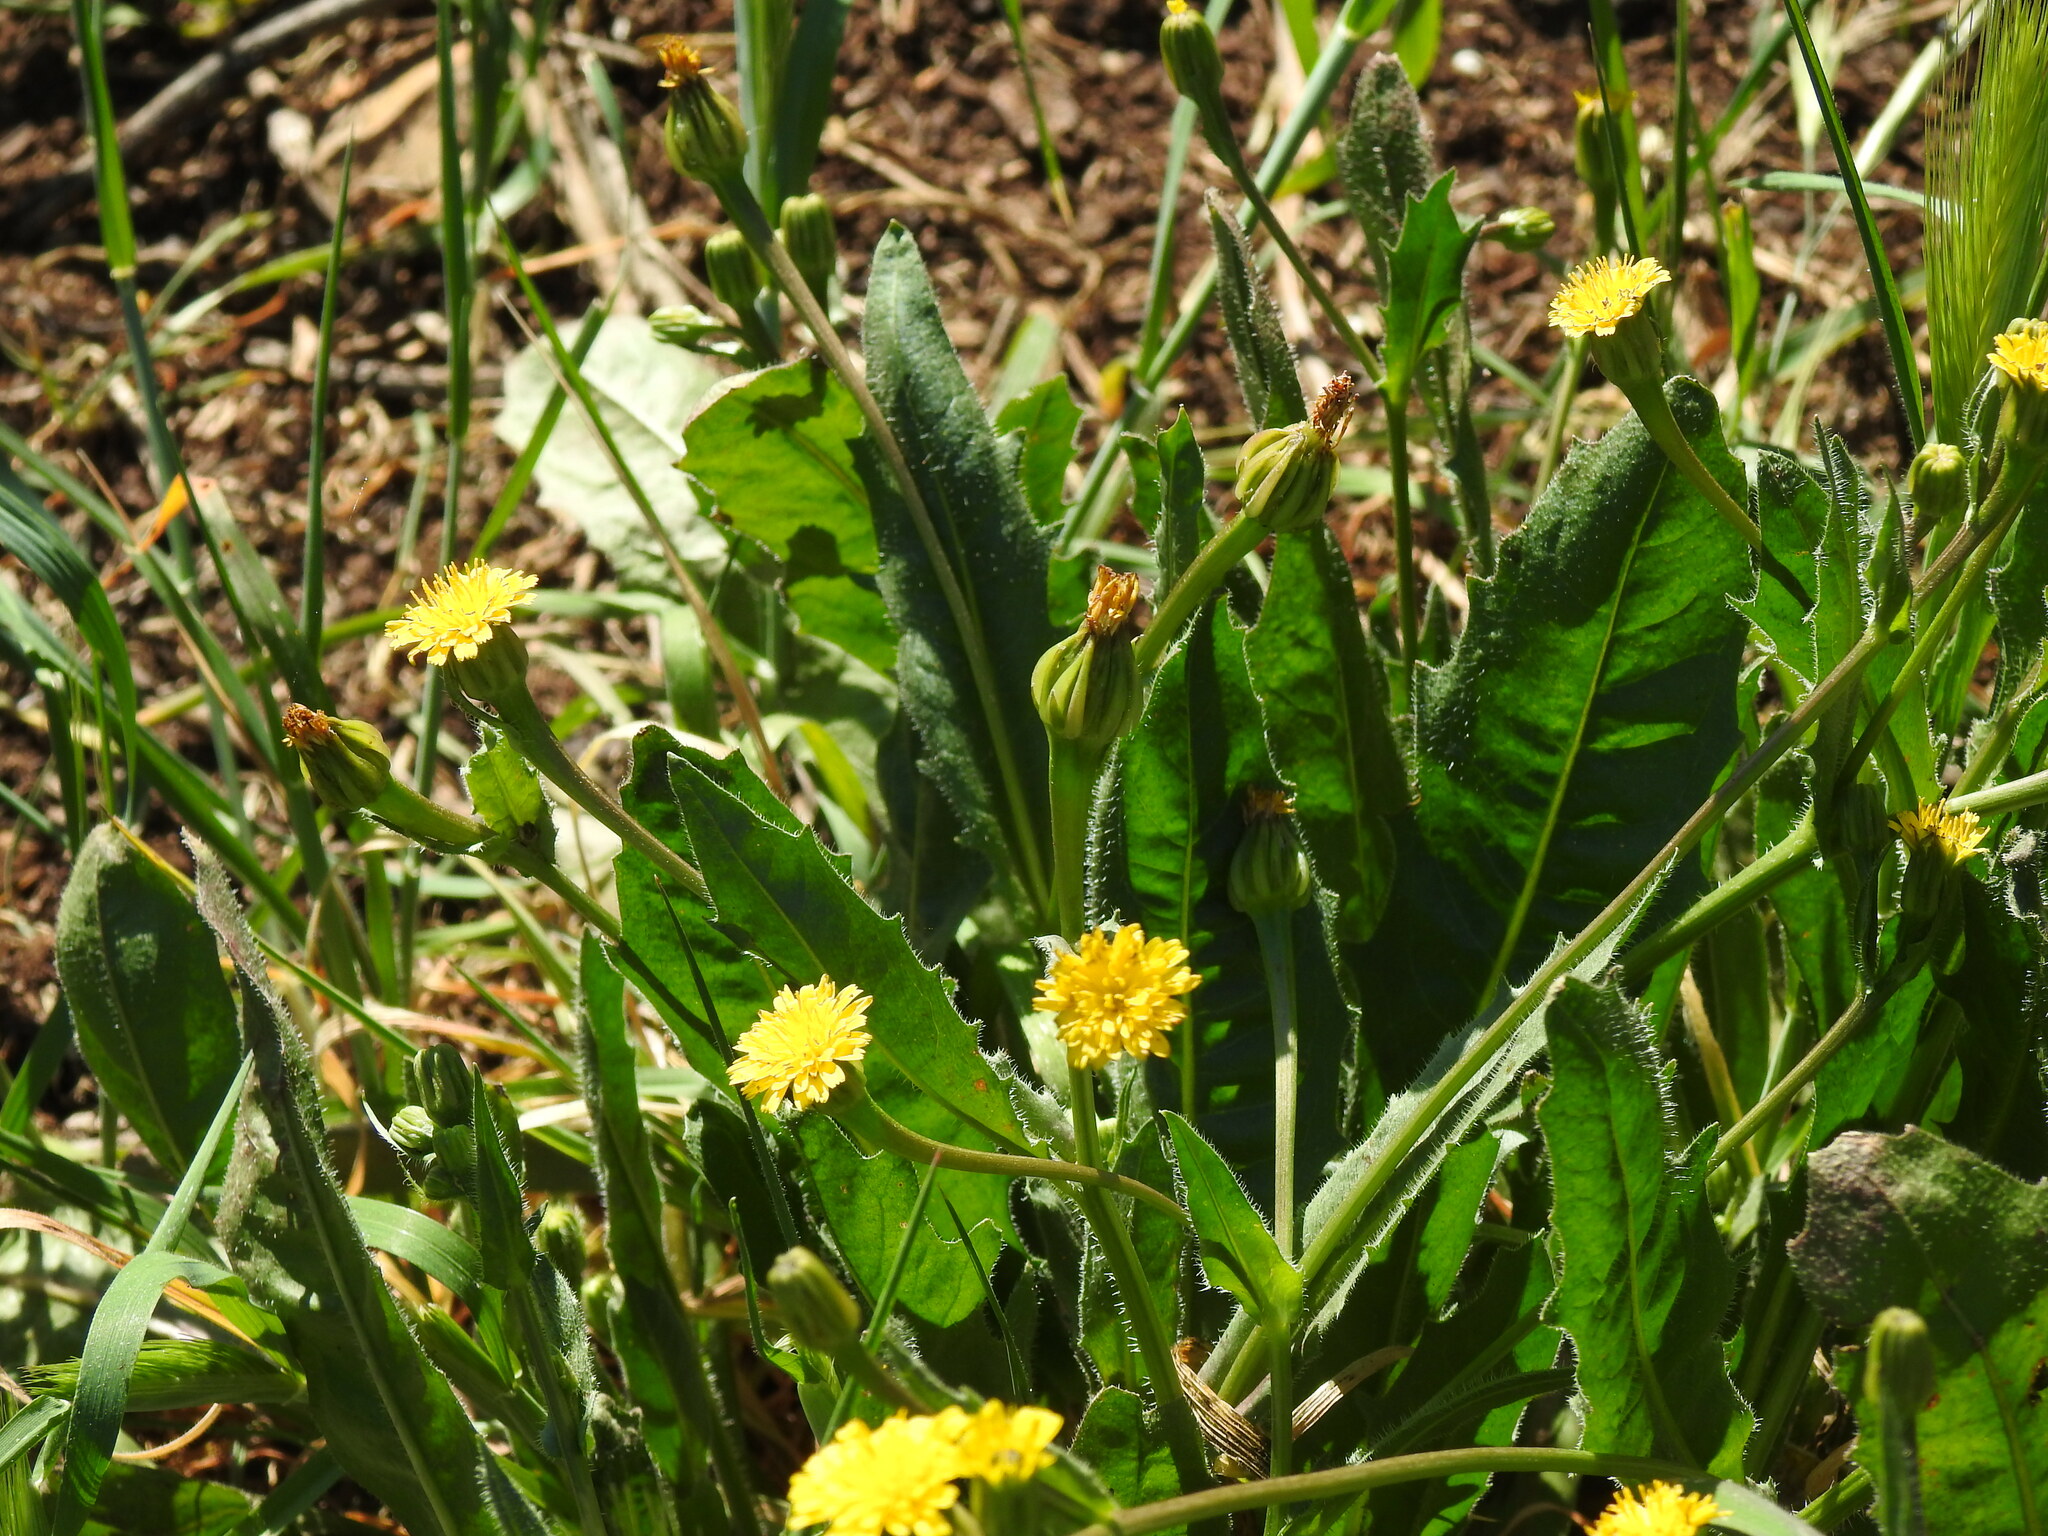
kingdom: Plantae
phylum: Tracheophyta
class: Magnoliopsida
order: Asterales
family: Asteraceae
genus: Hedypnois
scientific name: Hedypnois rhagadioloides
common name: Cretan weed
